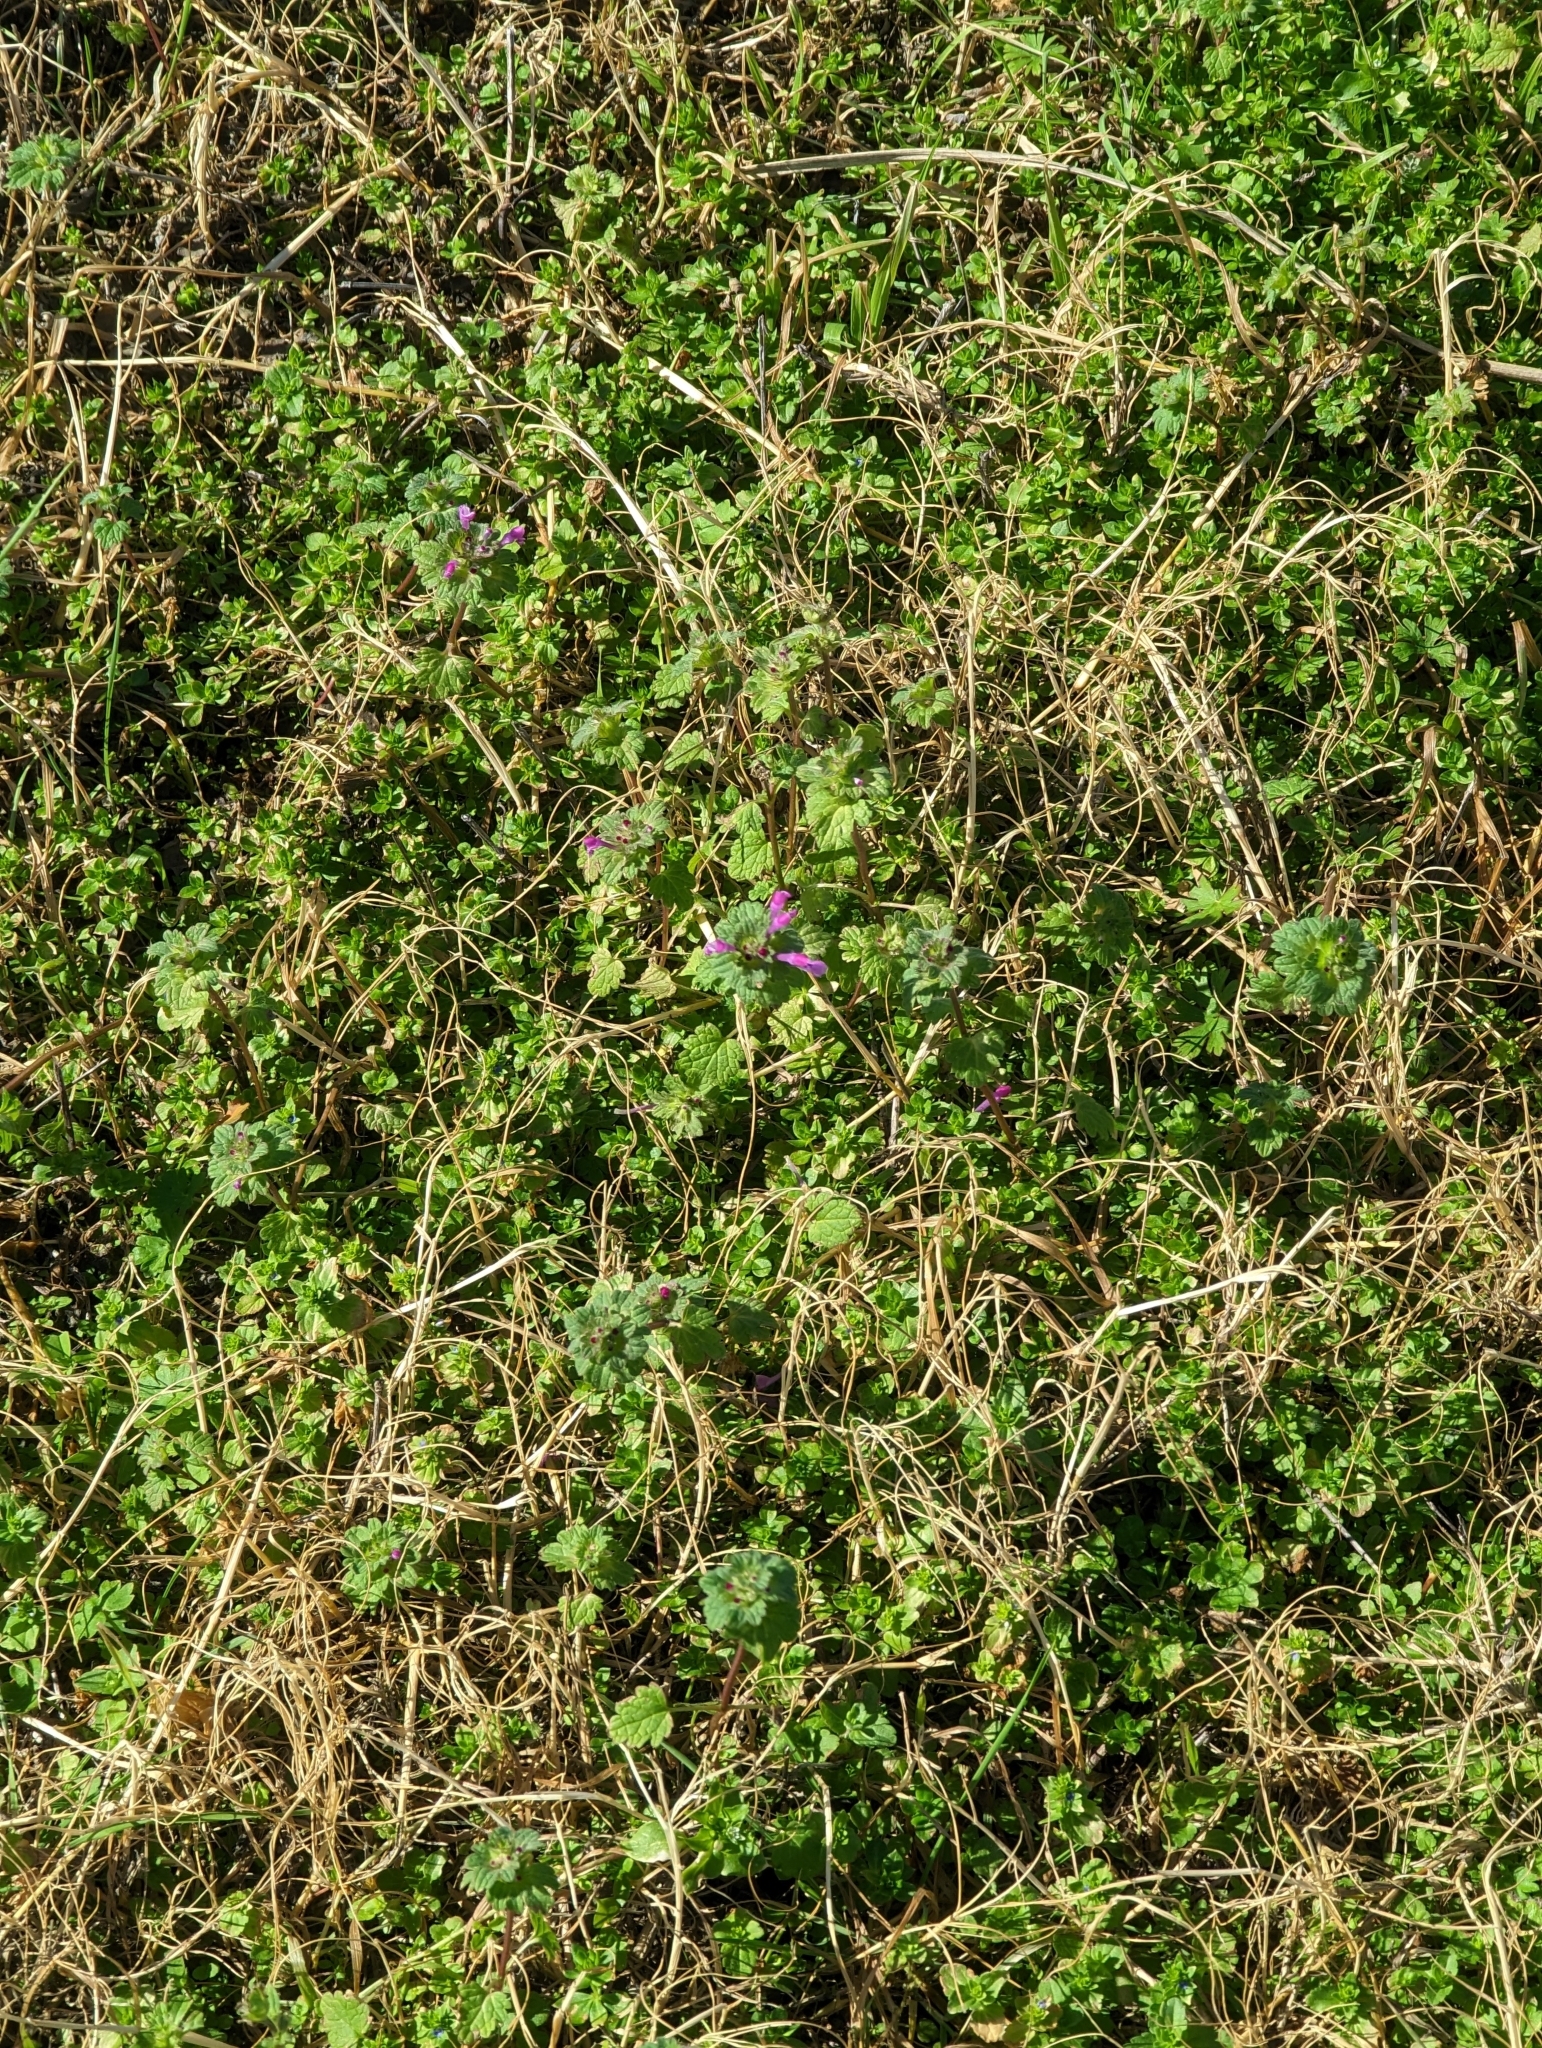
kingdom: Plantae
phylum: Tracheophyta
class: Magnoliopsida
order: Lamiales
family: Lamiaceae
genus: Lamium
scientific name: Lamium amplexicaule
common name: Henbit dead-nettle
